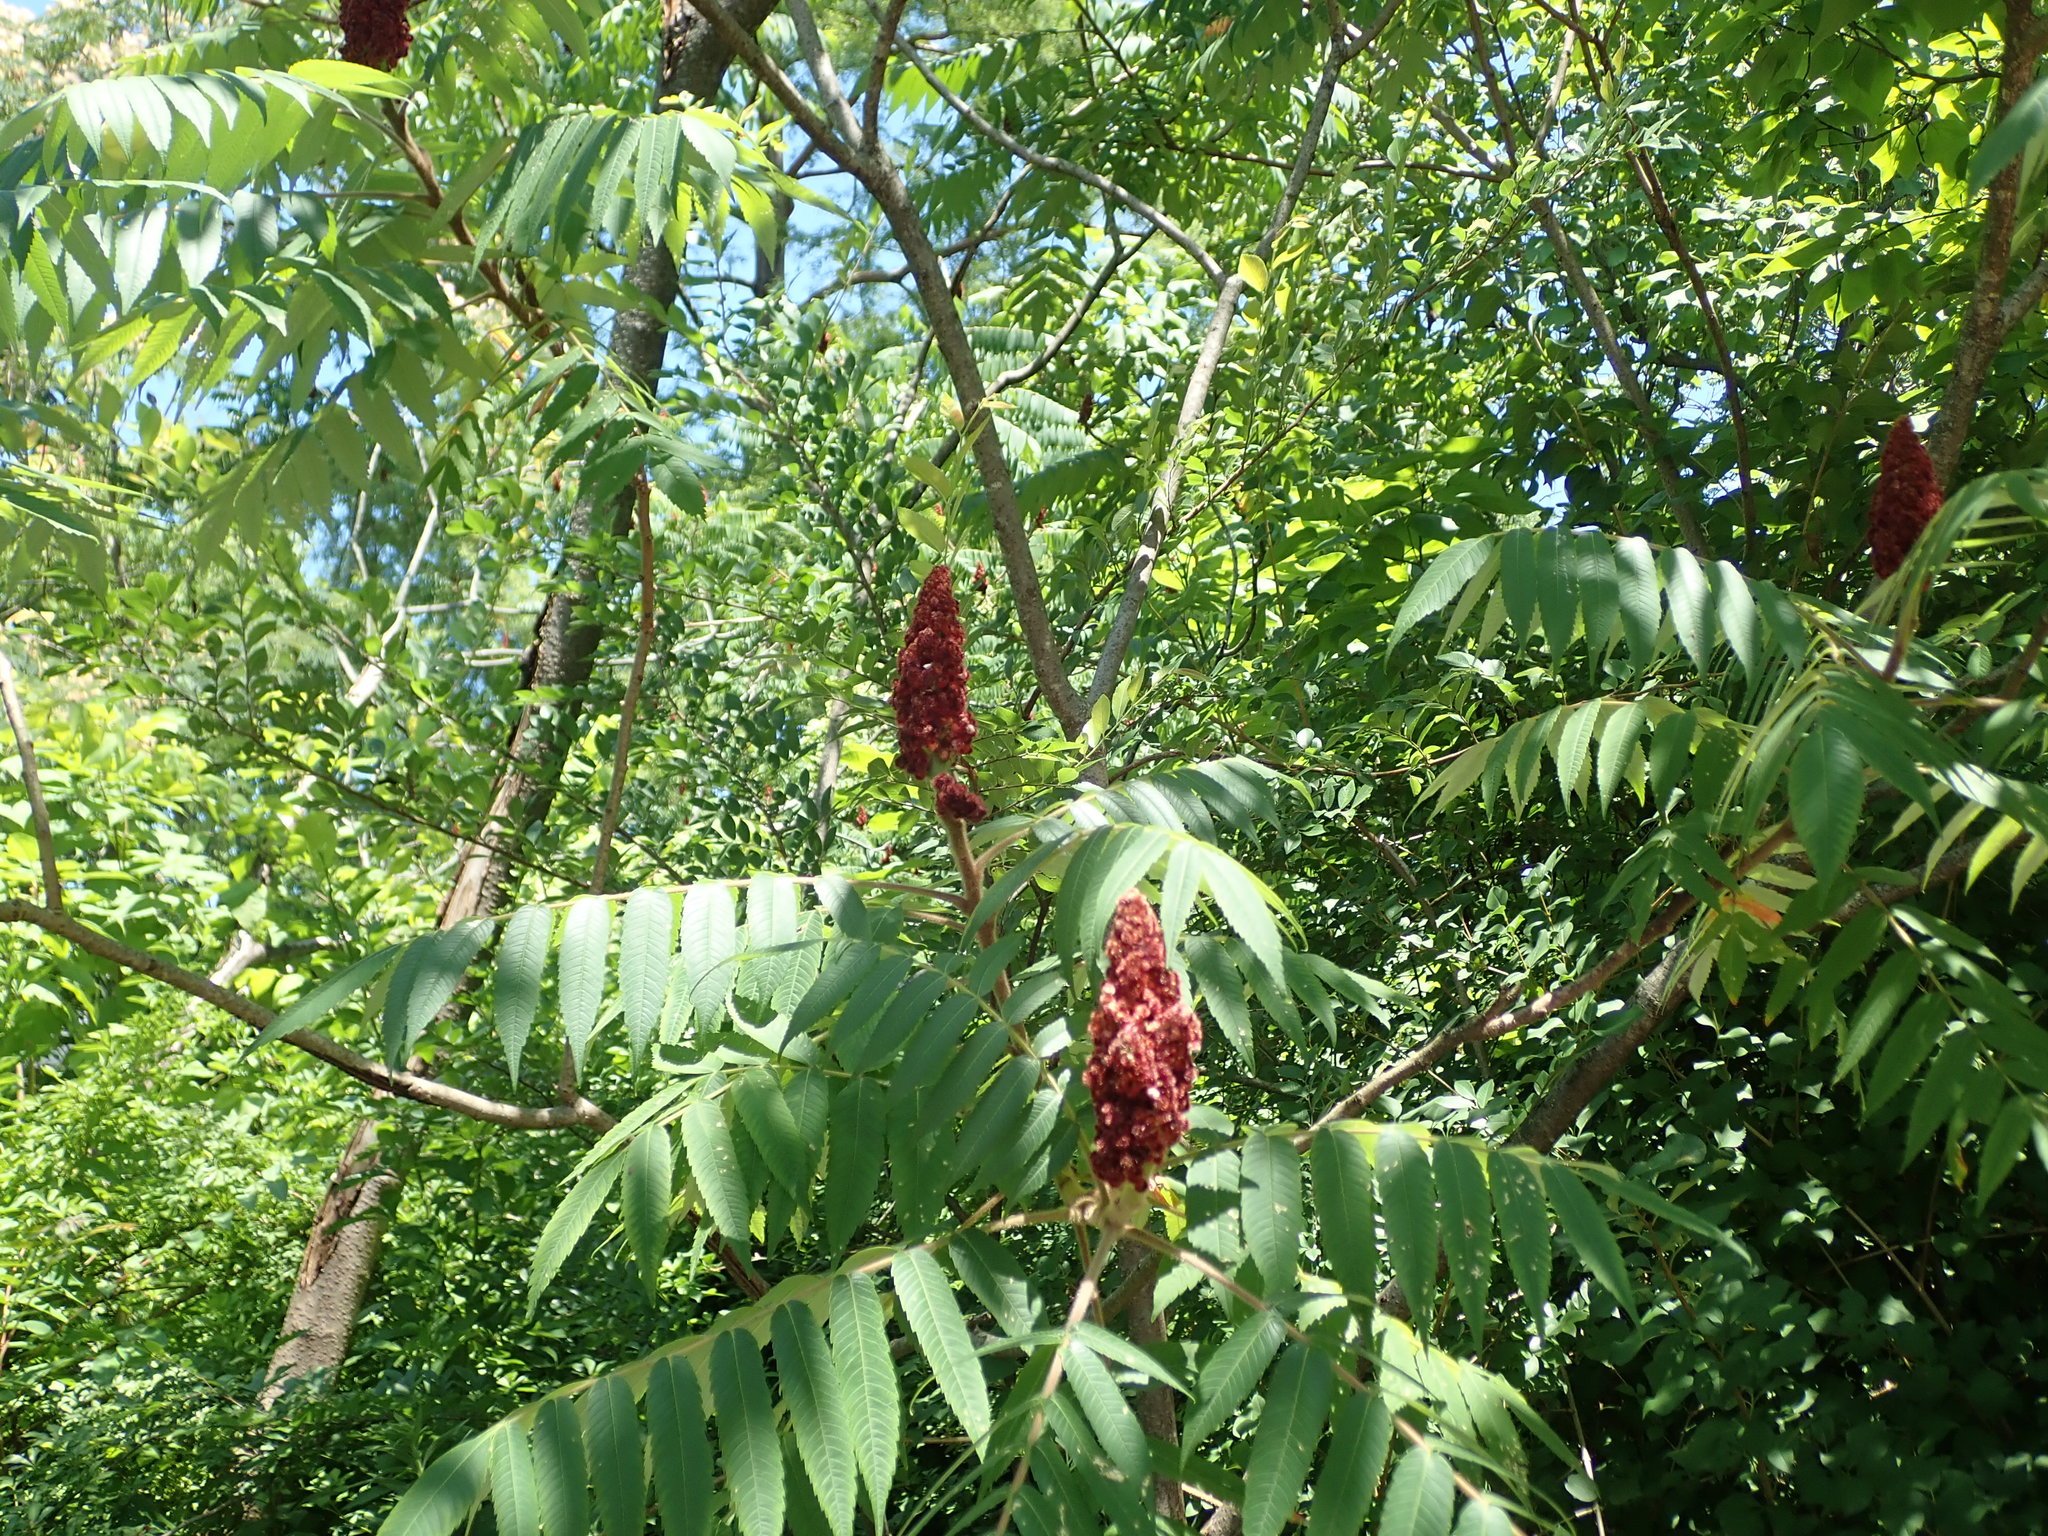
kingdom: Plantae
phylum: Tracheophyta
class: Magnoliopsida
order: Sapindales
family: Anacardiaceae
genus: Rhus
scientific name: Rhus typhina
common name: Staghorn sumac
